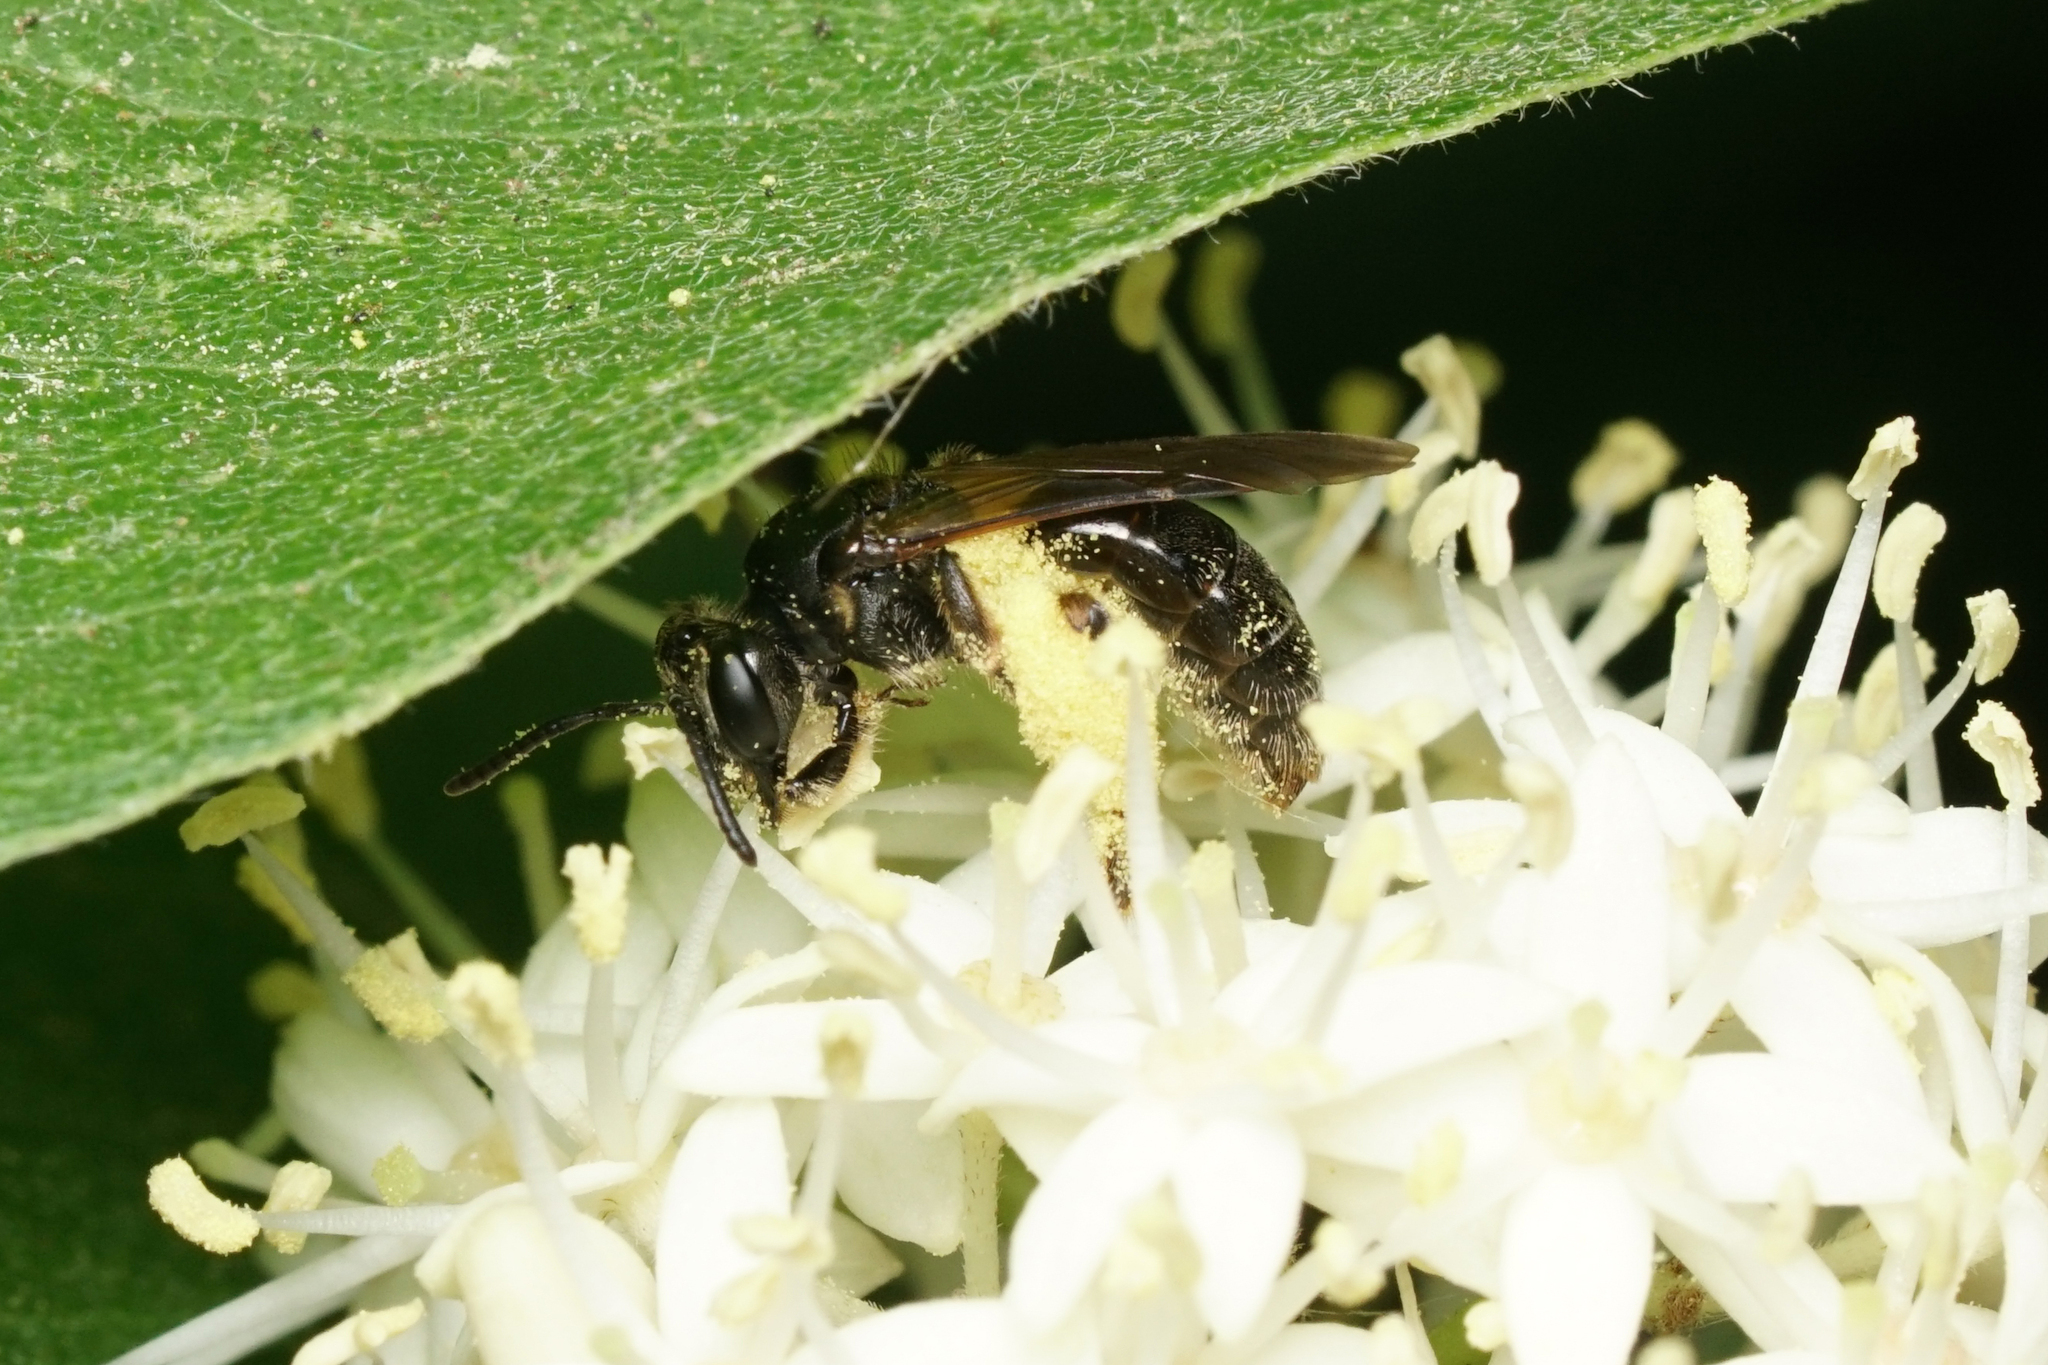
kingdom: Animalia
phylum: Arthropoda
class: Insecta
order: Hymenoptera
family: Andrenidae
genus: Andrena
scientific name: Andrena integra
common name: Short-haired dogwood mining bee
